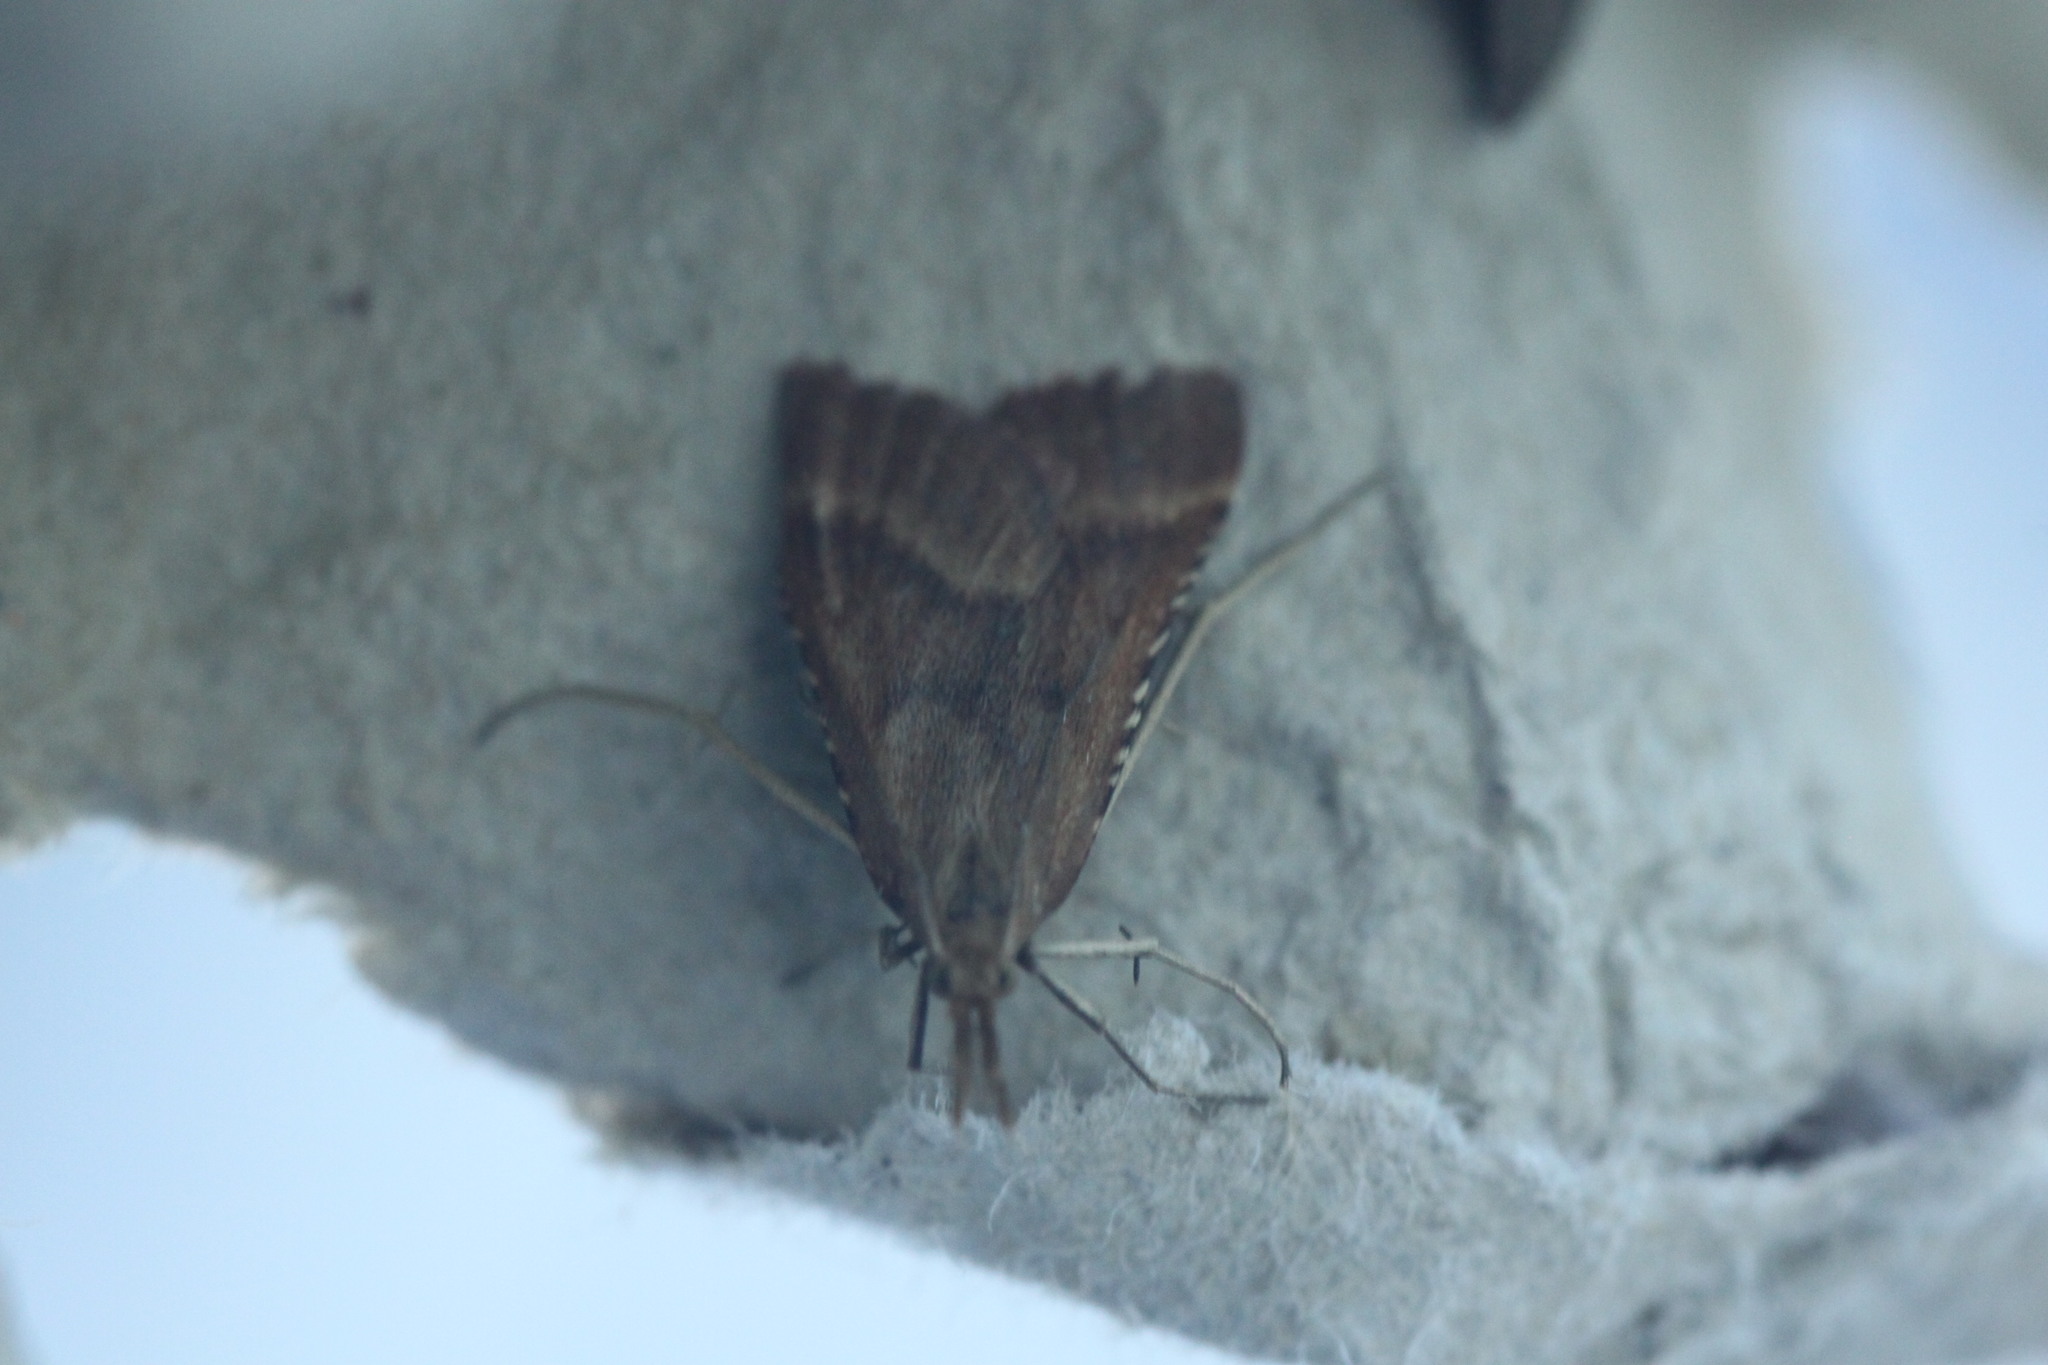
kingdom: Animalia
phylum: Arthropoda
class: Insecta
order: Lepidoptera
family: Pyralidae
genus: Synaphe
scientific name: Synaphe punctalis
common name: Long-legged tabby
